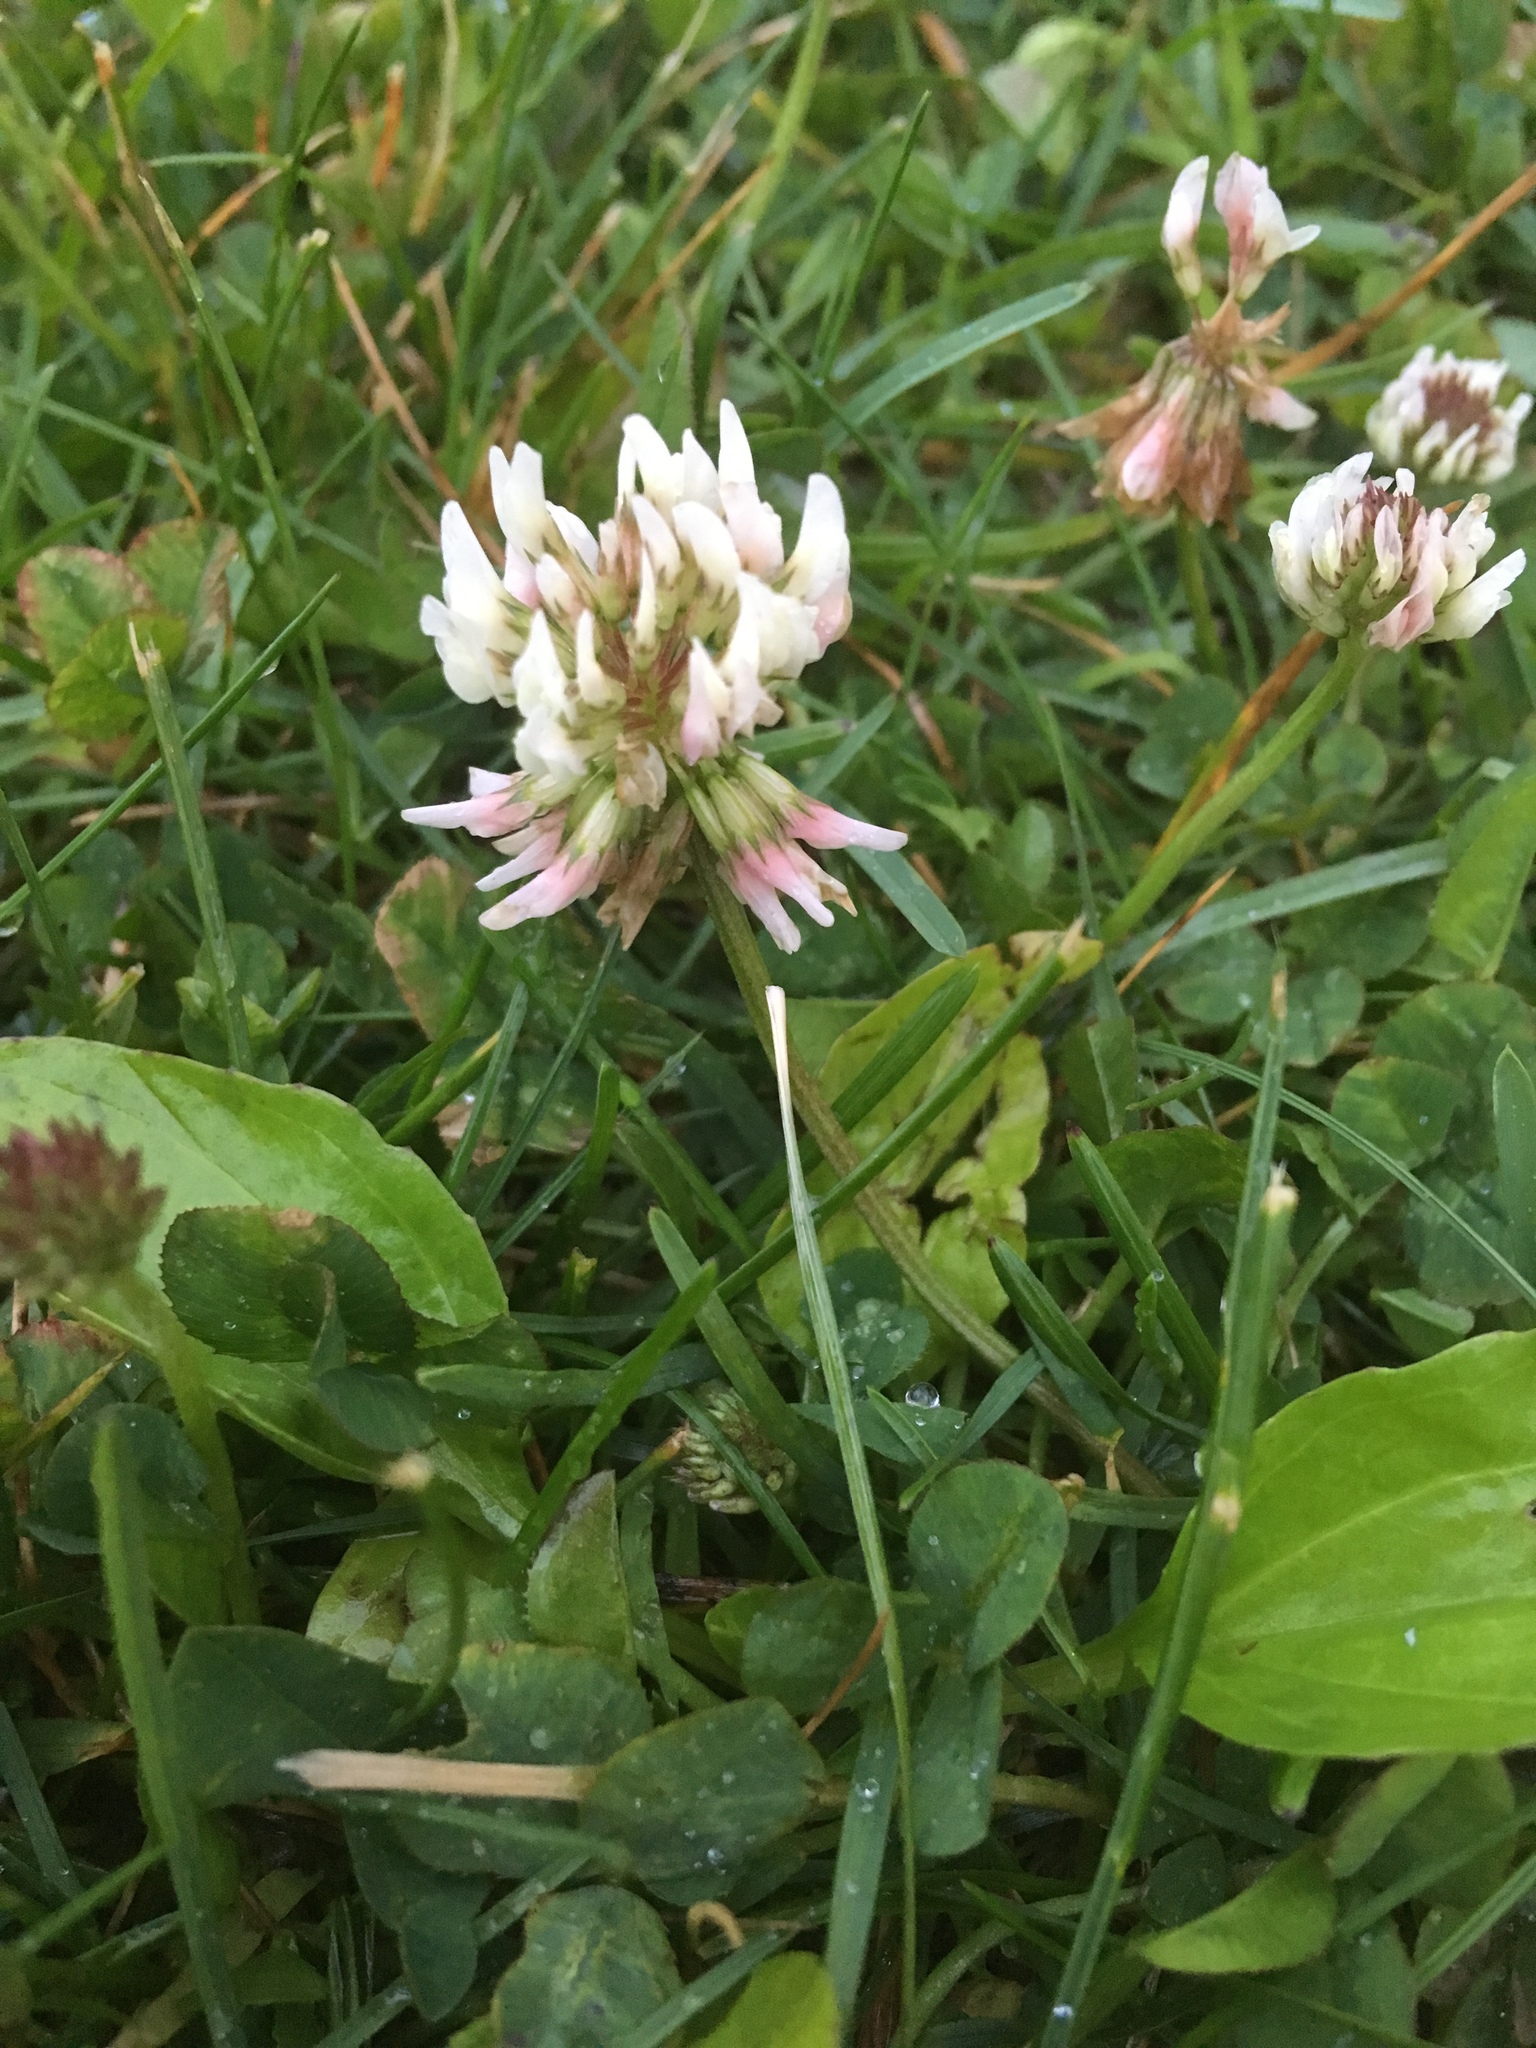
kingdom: Plantae
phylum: Tracheophyta
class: Magnoliopsida
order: Fabales
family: Fabaceae
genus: Trifolium
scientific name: Trifolium repens
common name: White clover
